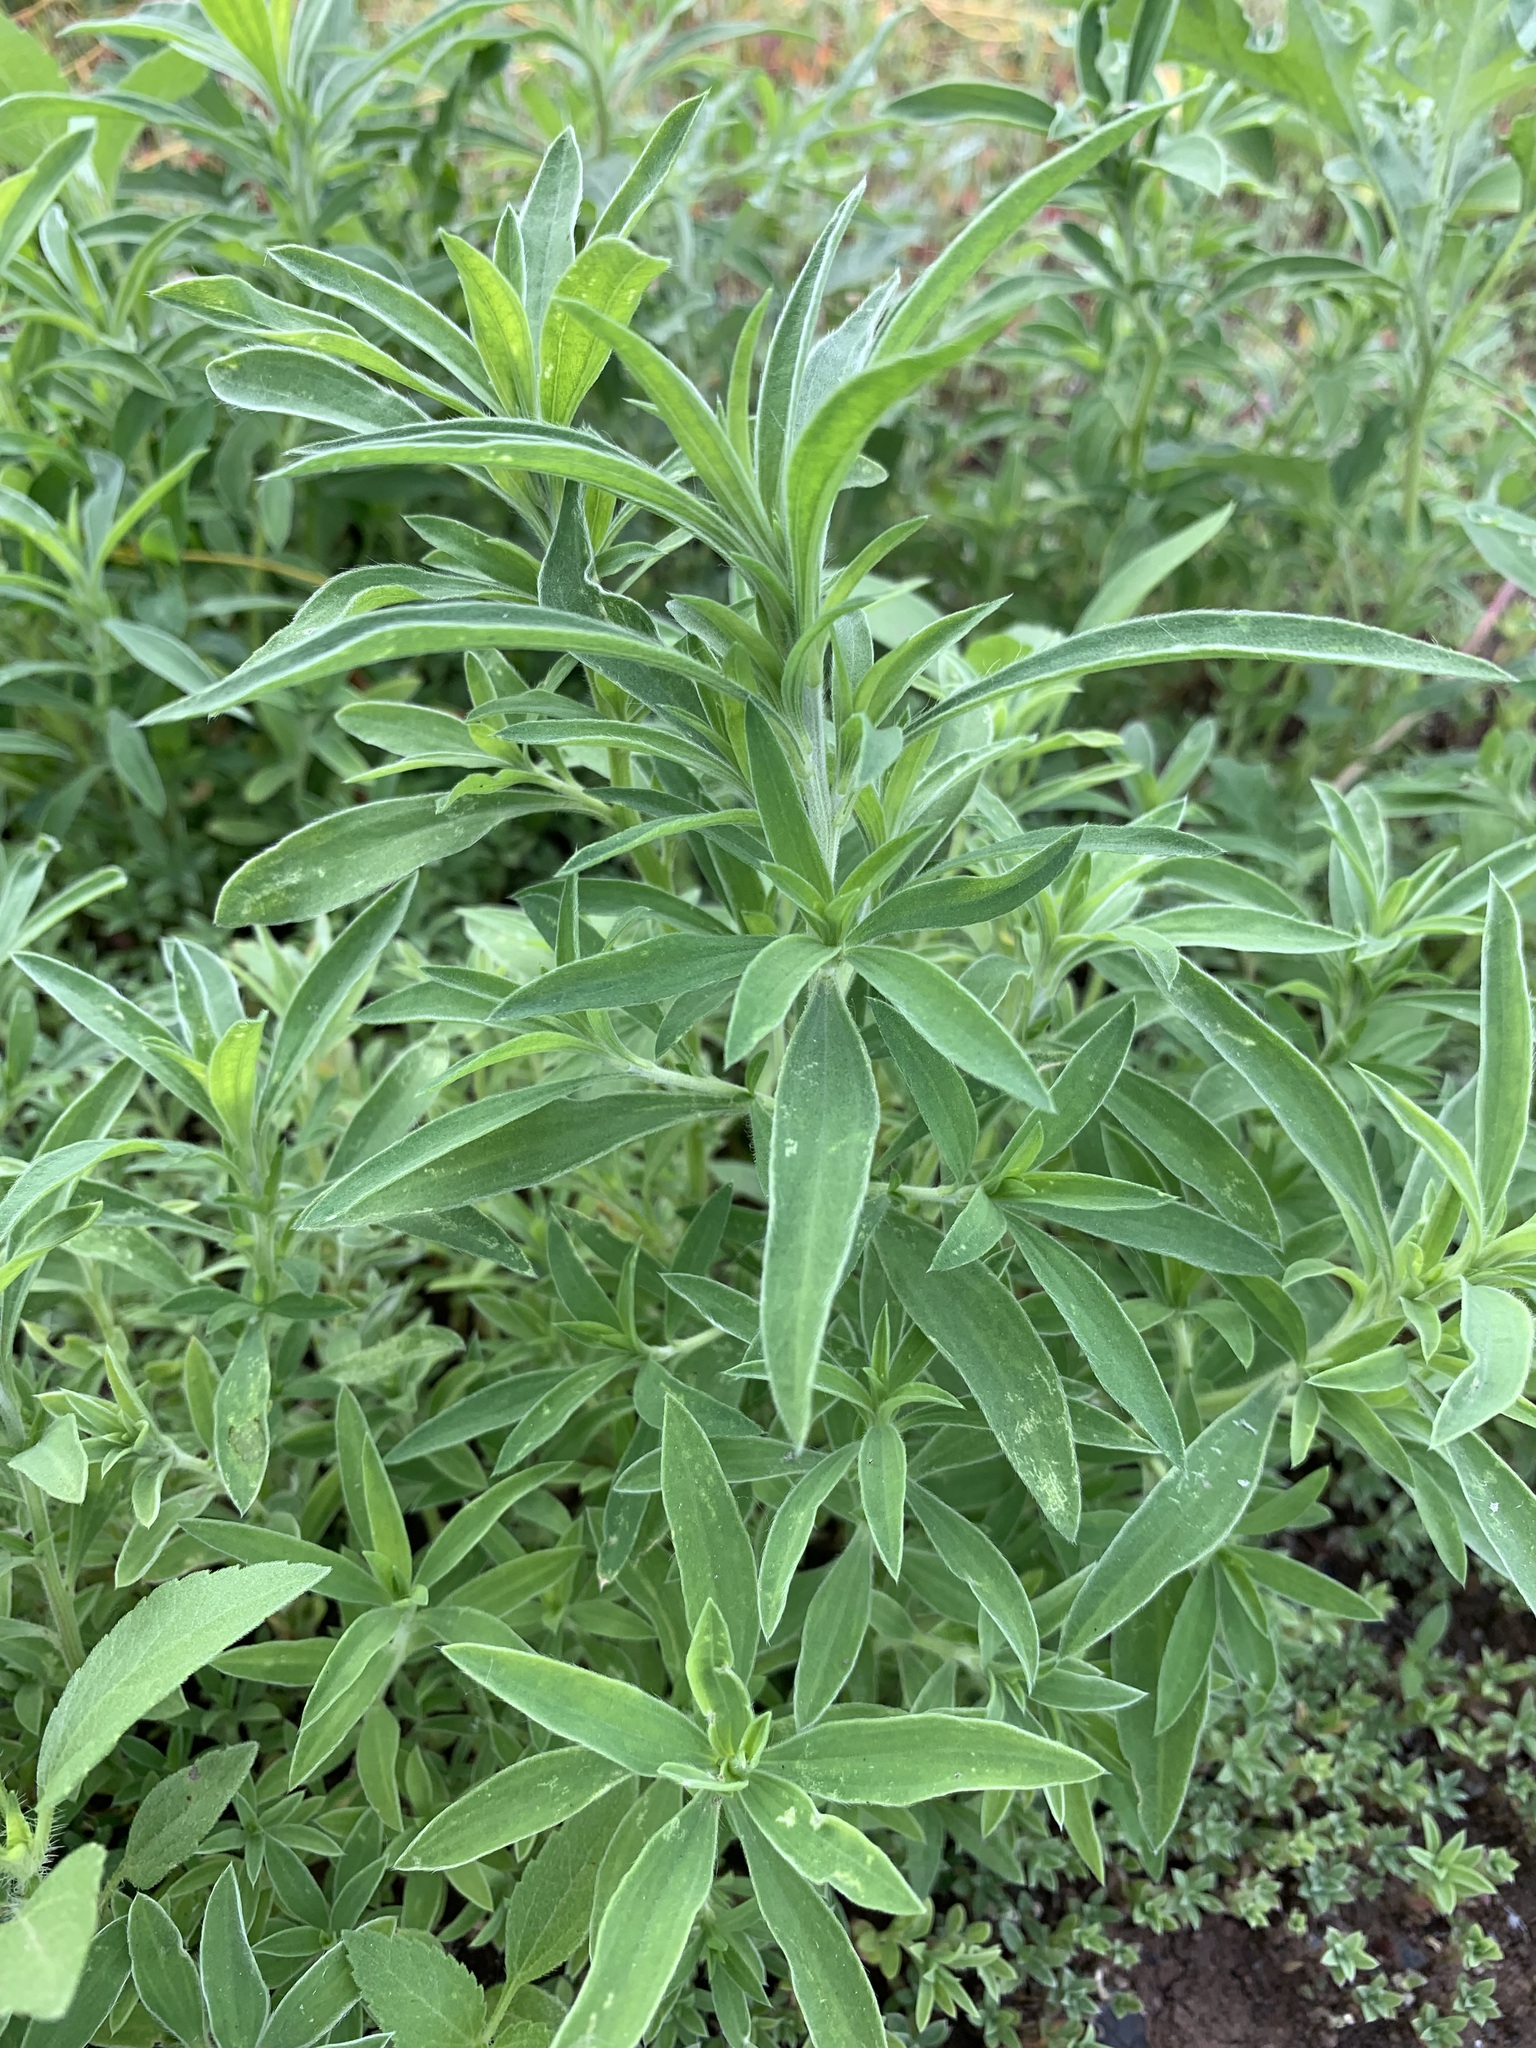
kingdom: Plantae
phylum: Tracheophyta
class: Magnoliopsida
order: Caryophyllales
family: Amaranthaceae
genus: Bassia
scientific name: Bassia scoparia
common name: Belvedere
